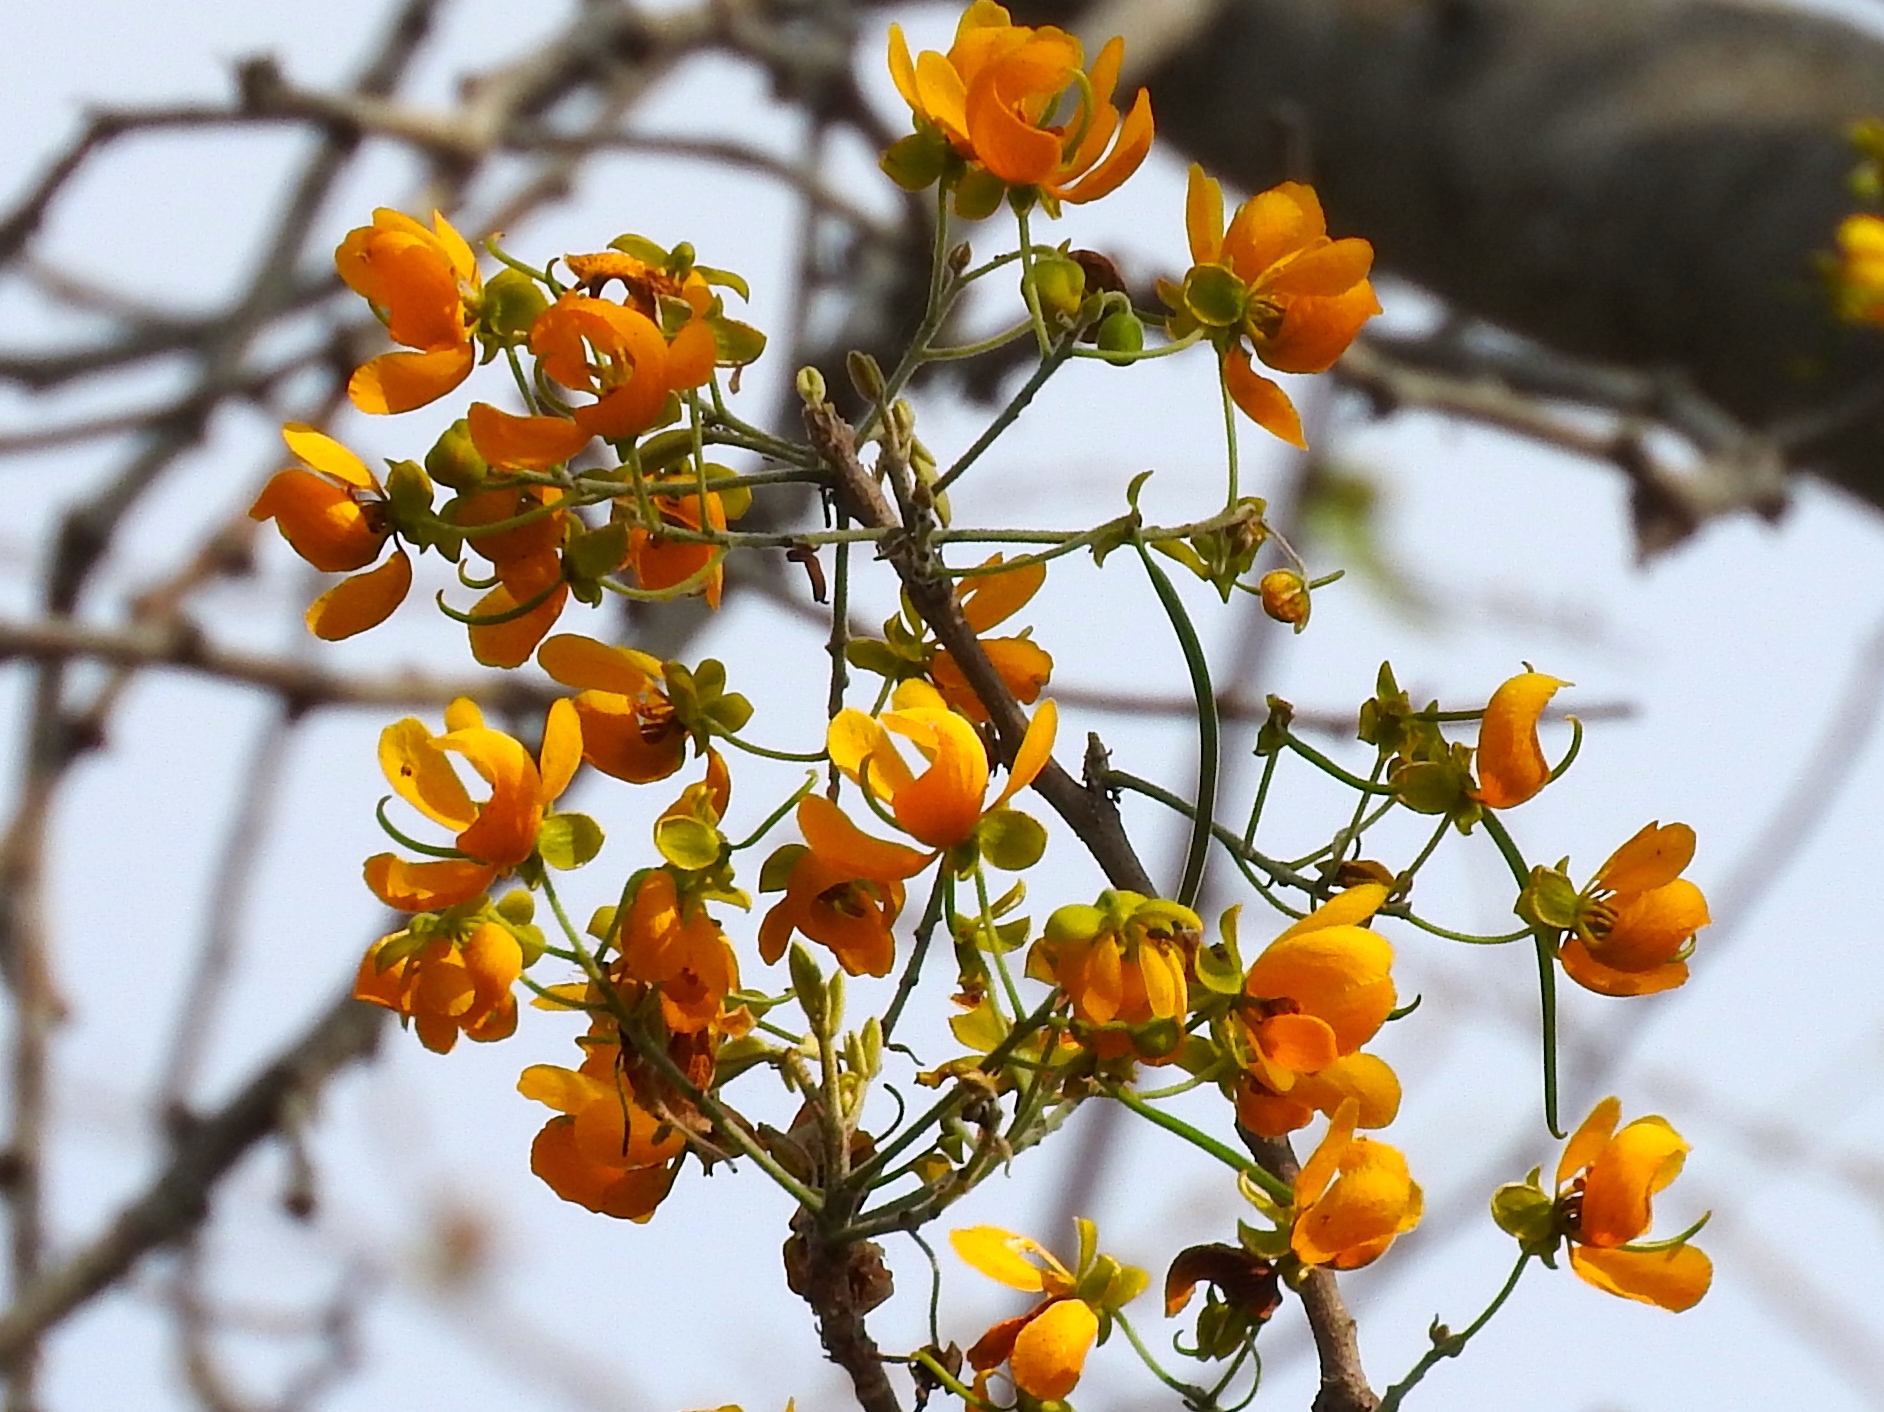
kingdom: Plantae
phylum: Tracheophyta
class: Magnoliopsida
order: Fabales
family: Fabaceae
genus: Senna
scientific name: Senna atomaria
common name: Flor de san jose
